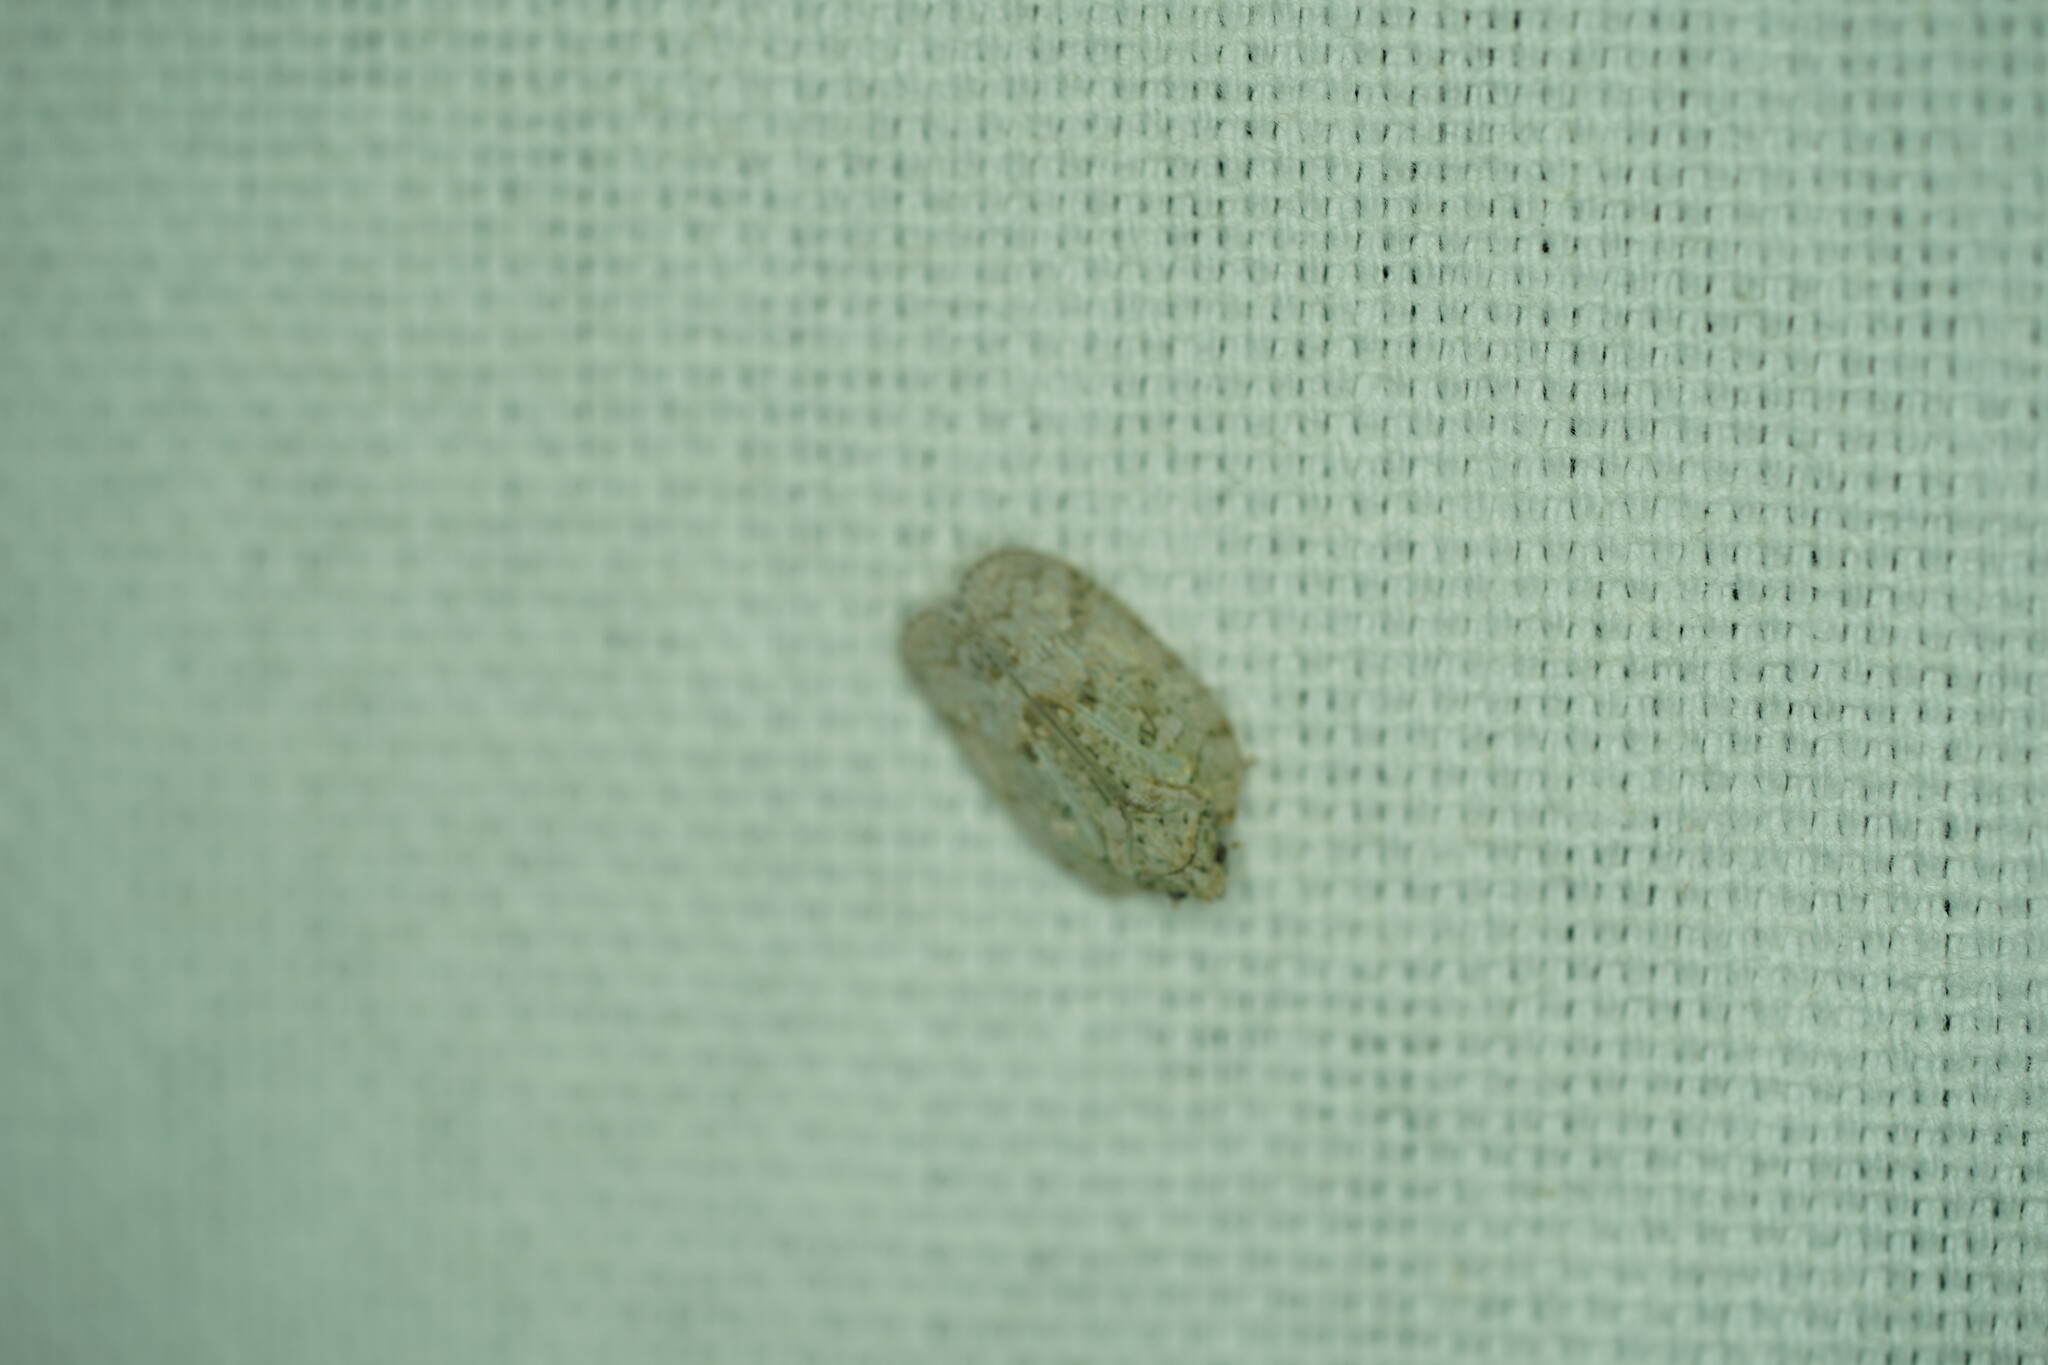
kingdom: Animalia
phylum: Arthropoda
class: Insecta
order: Hemiptera
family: Flatidae
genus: Flatoidinus
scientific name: Flatoidinus punctatus
